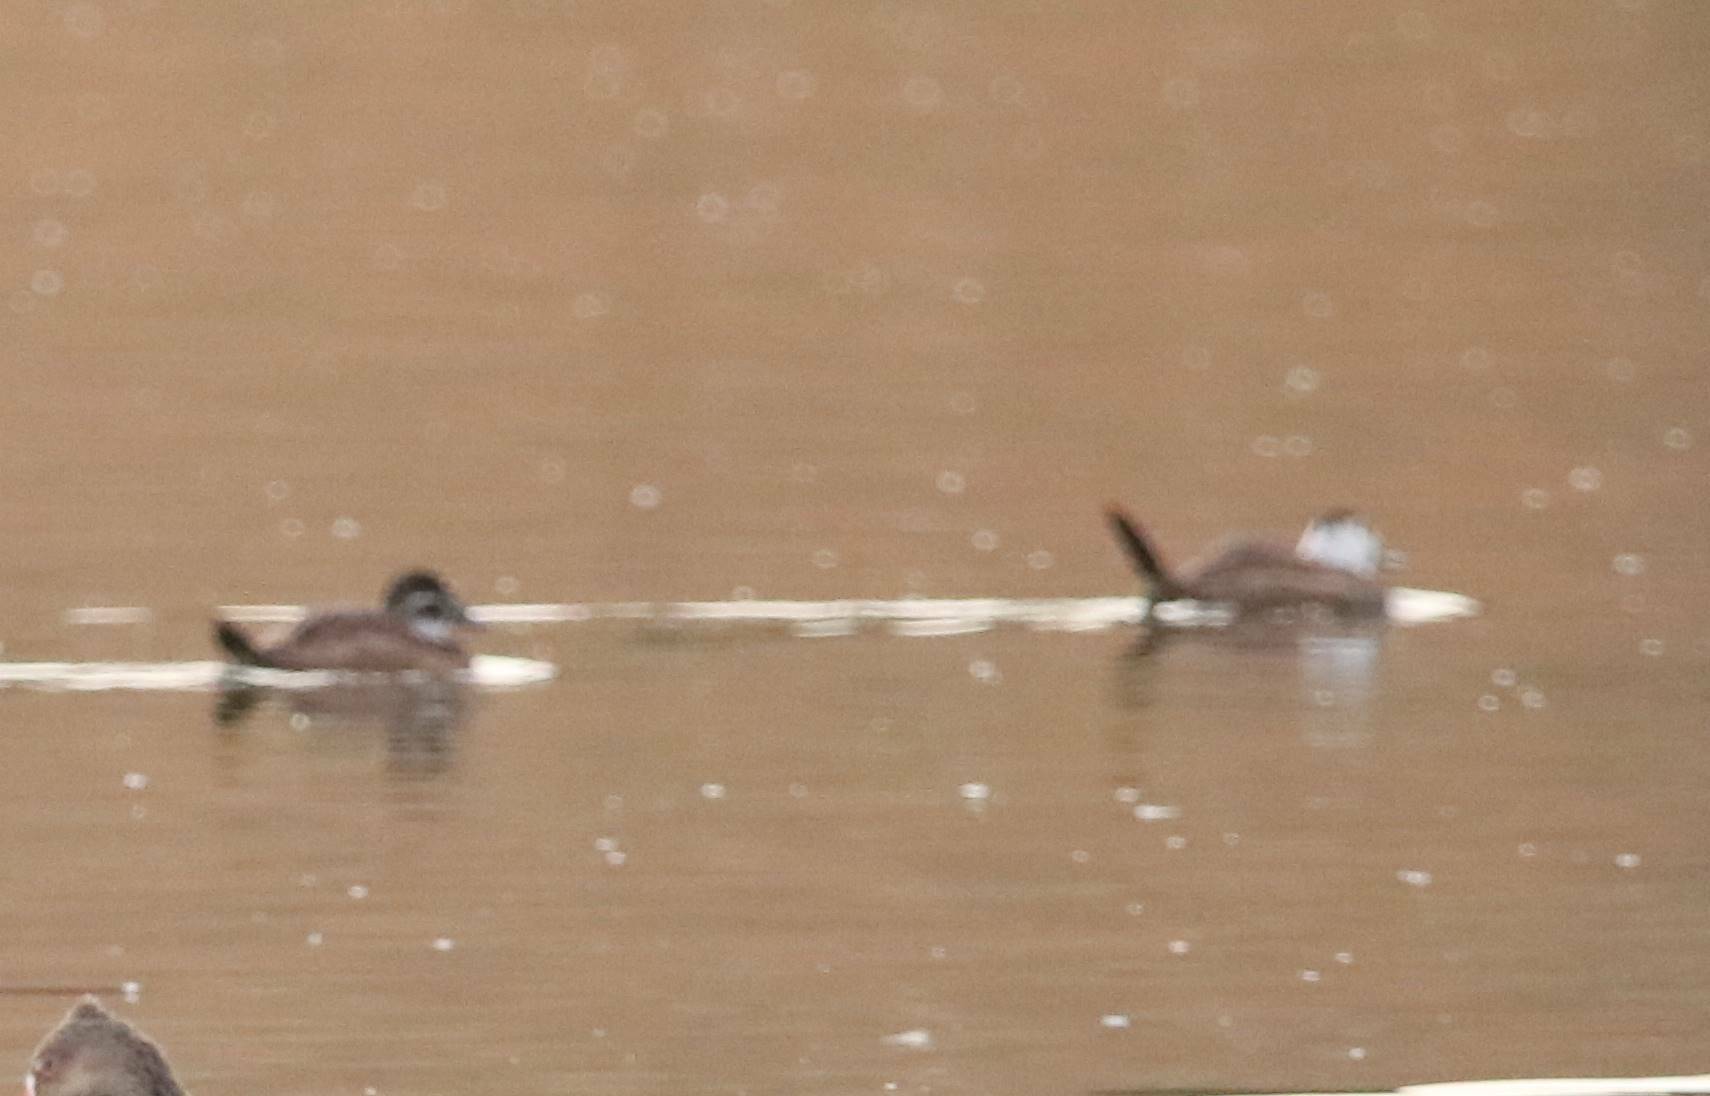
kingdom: Animalia
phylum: Chordata
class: Aves
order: Anseriformes
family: Anatidae
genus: Oxyura
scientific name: Oxyura leucocephala
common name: White-headed duck
